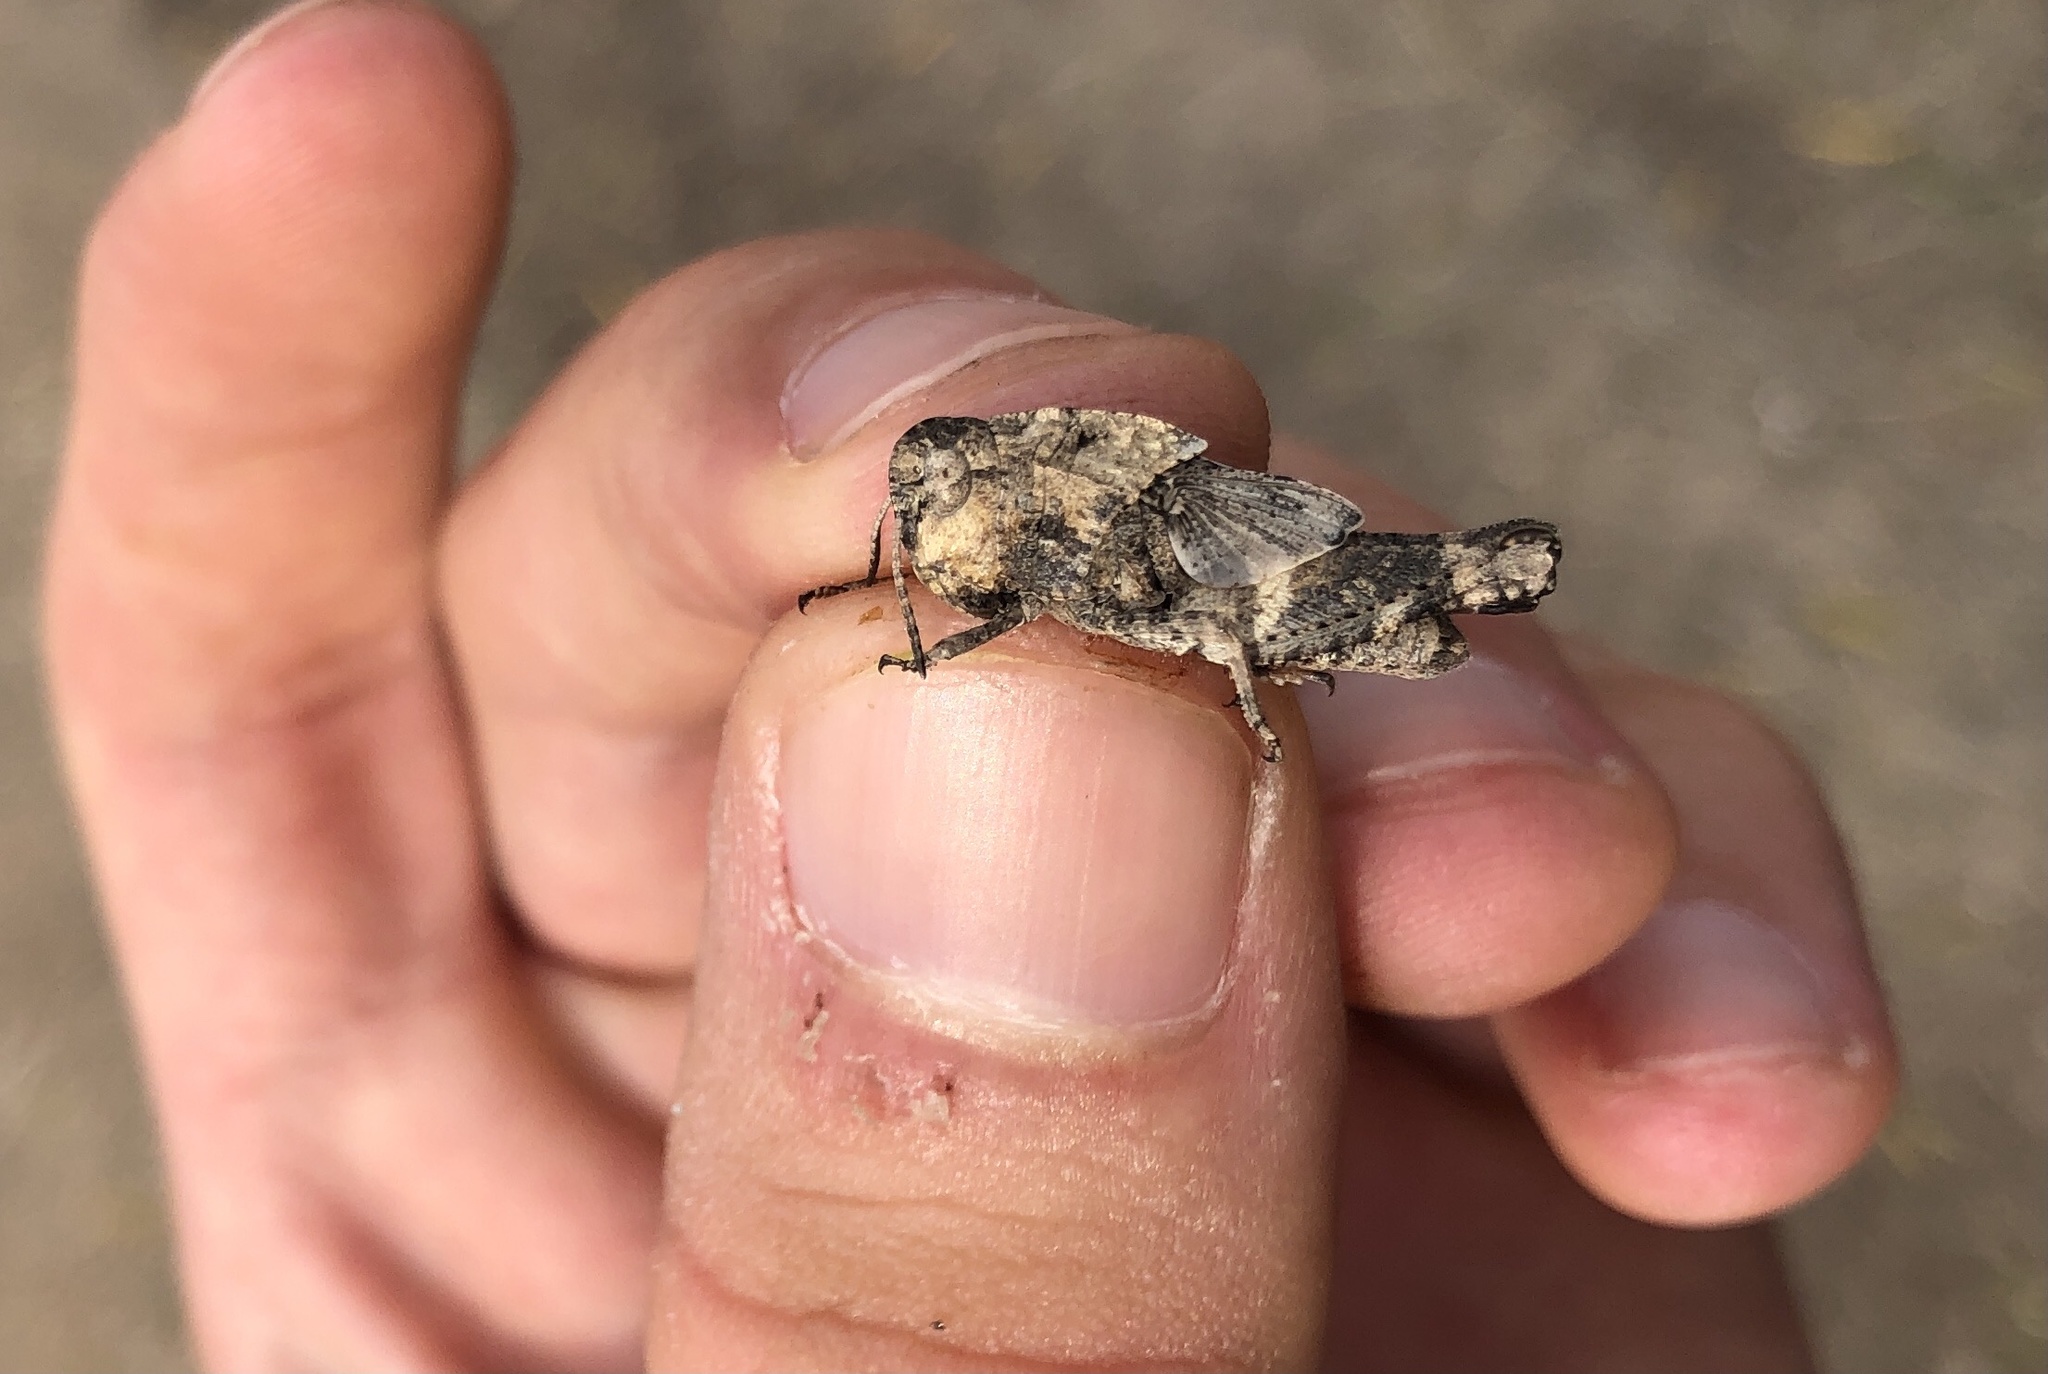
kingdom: Animalia
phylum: Arthropoda
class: Insecta
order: Orthoptera
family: Acrididae
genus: Arphia
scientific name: Arphia simplex
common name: Plains yellow-winged grasshopper
